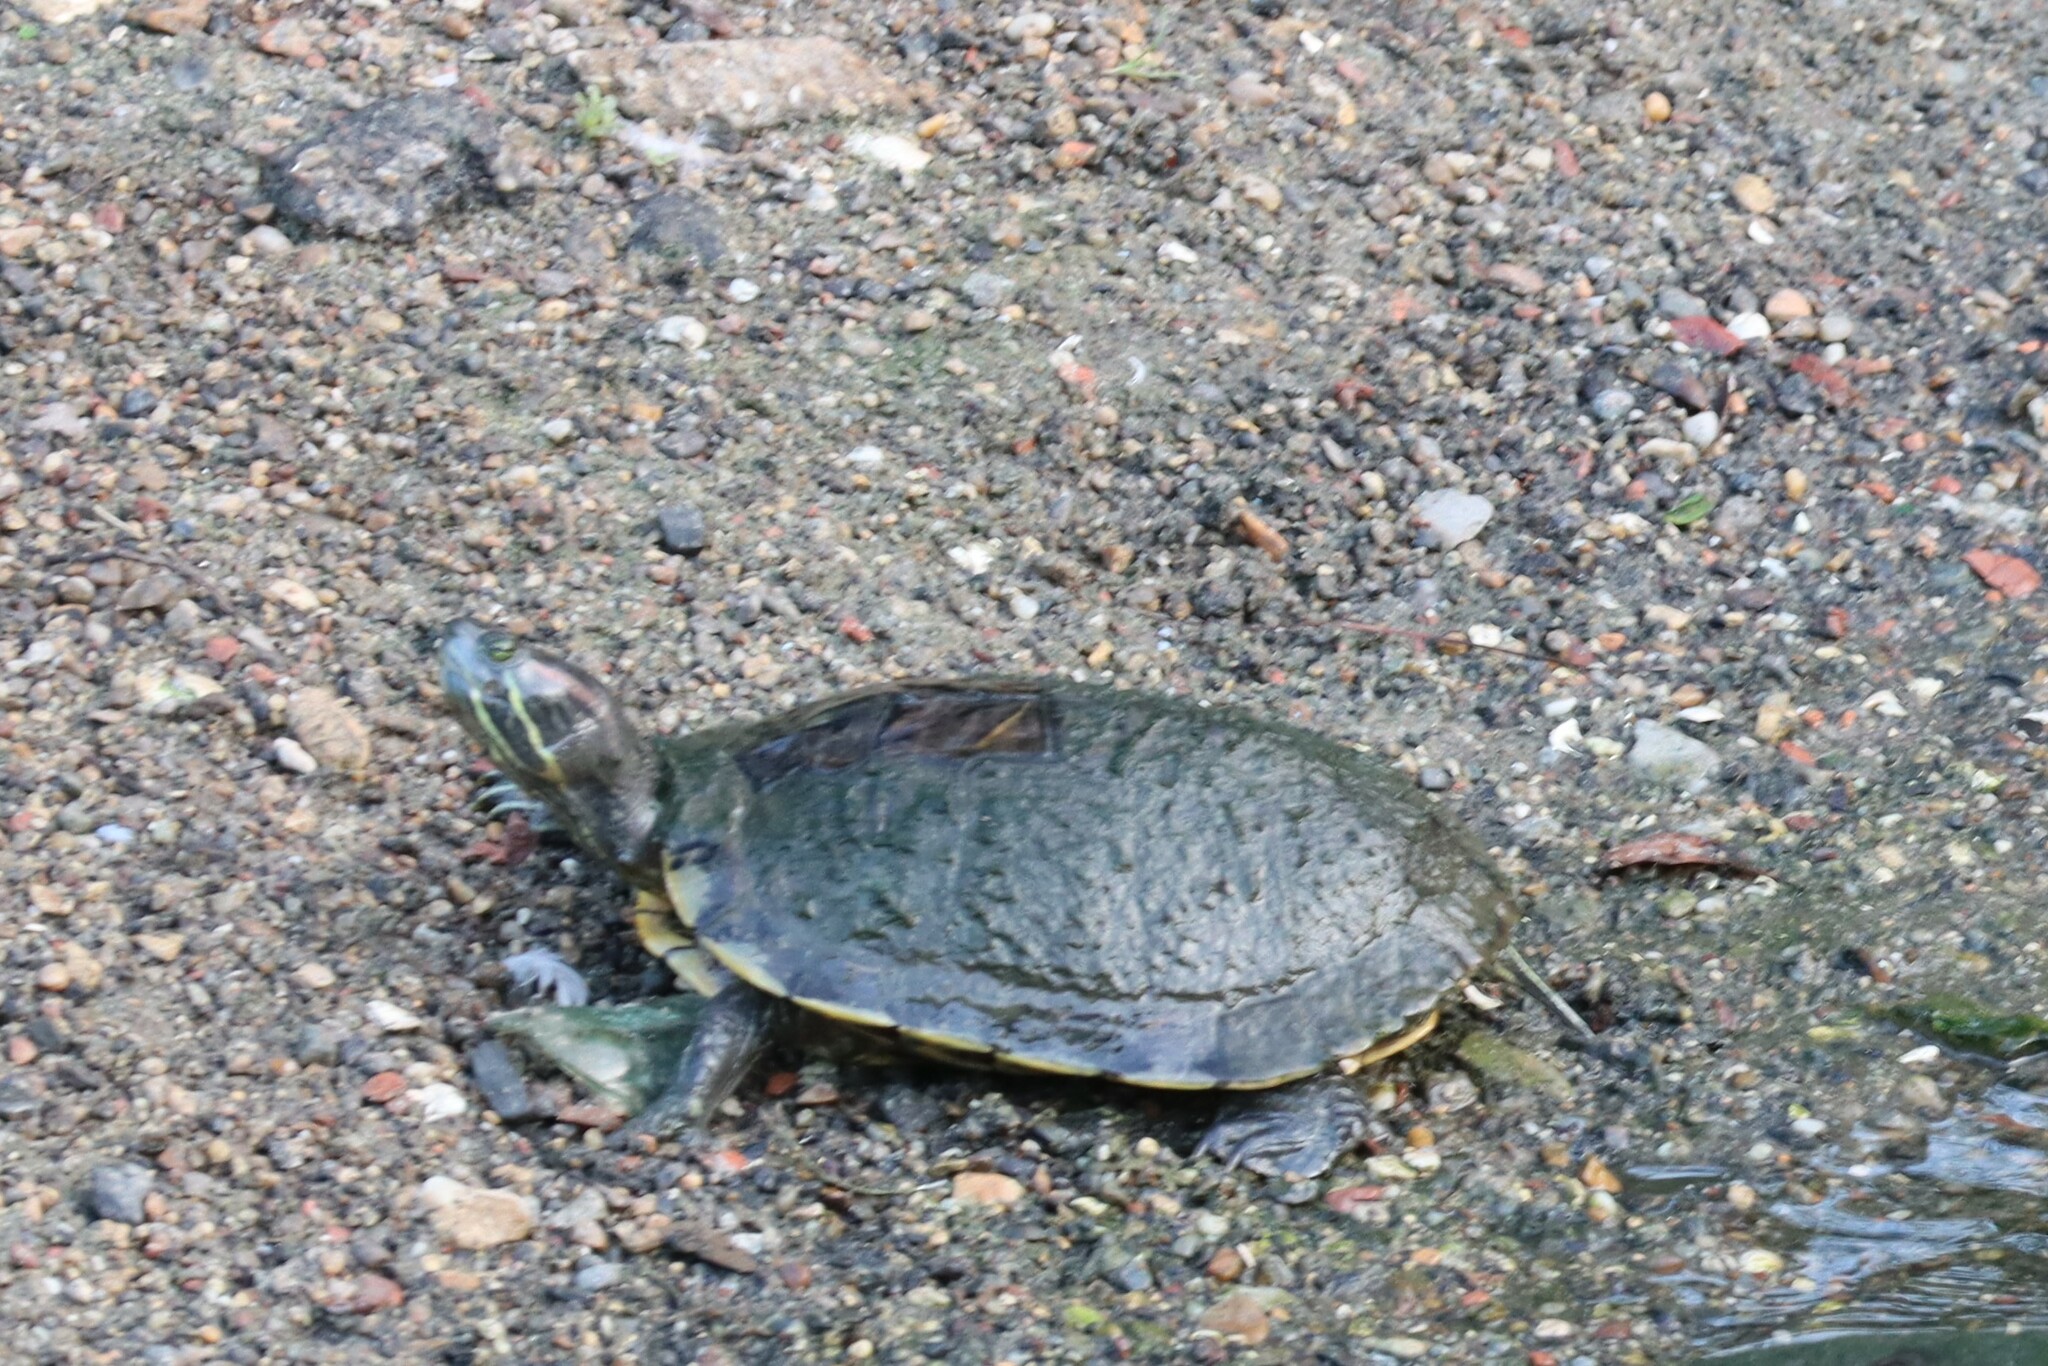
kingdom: Animalia
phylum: Chordata
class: Testudines
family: Emydidae
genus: Trachemys
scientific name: Trachemys scripta
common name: Slider
